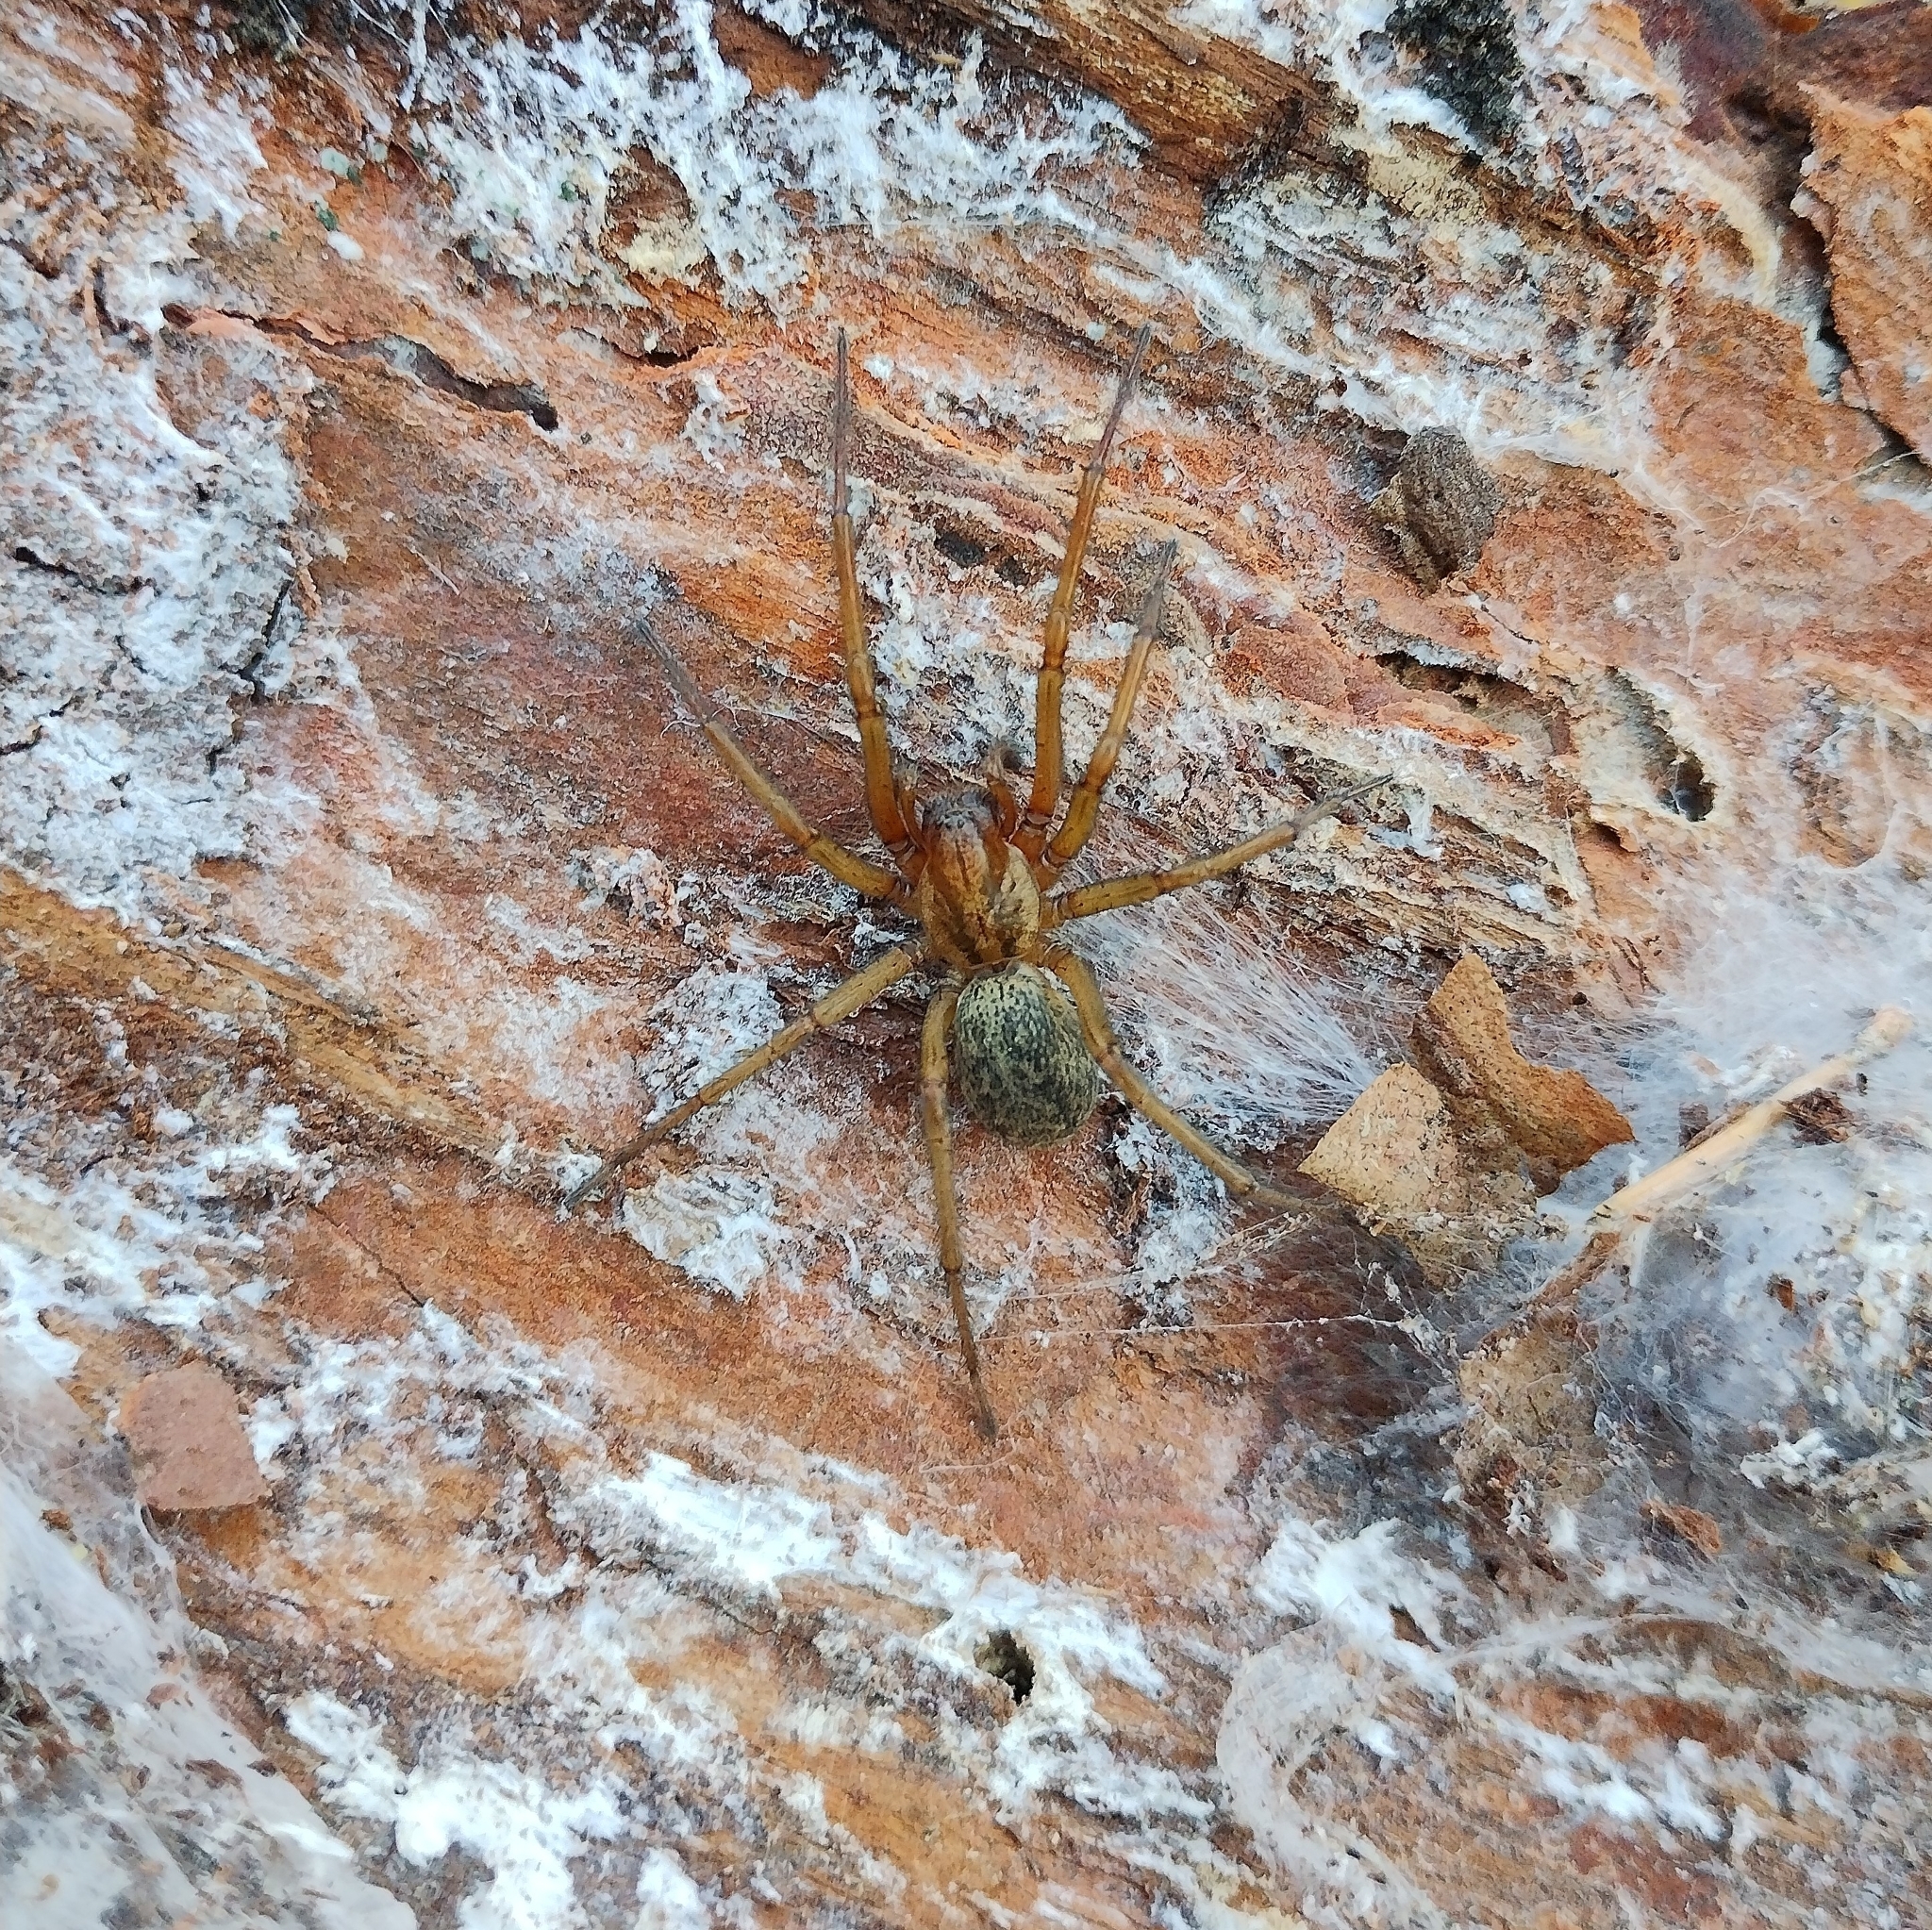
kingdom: Animalia
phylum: Arthropoda
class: Arachnida
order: Araneae
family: Agelenidae
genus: Eratigena
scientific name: Eratigena agrestis
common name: Hobo spider
